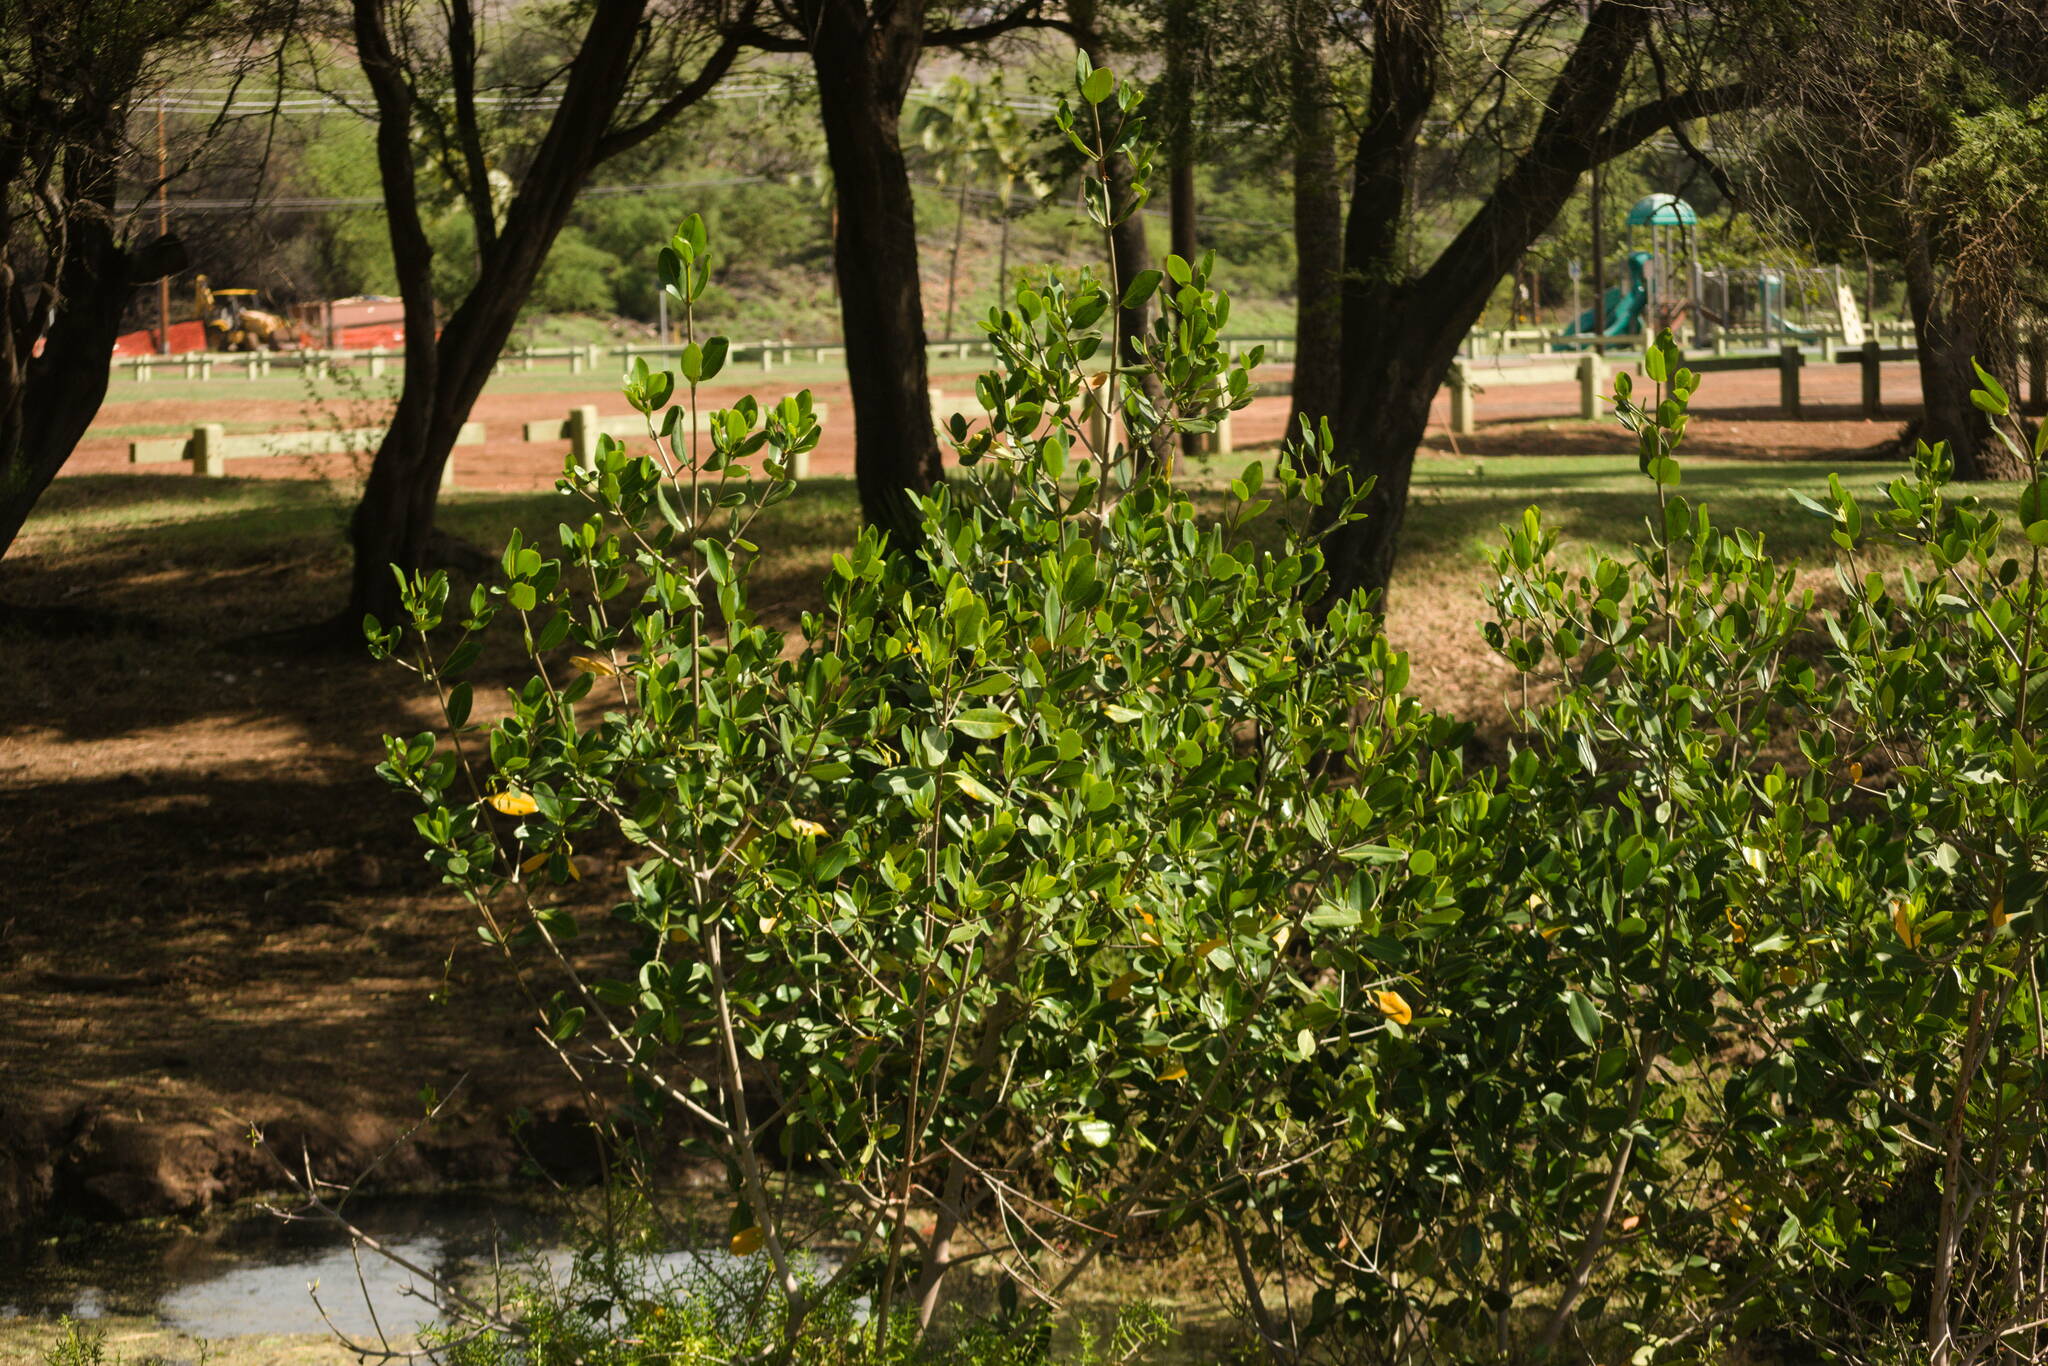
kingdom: Plantae
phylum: Tracheophyta
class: Magnoliopsida
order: Malpighiales
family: Rhizophoraceae
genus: Rhizophora
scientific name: Rhizophora mangle
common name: Red mangrove
